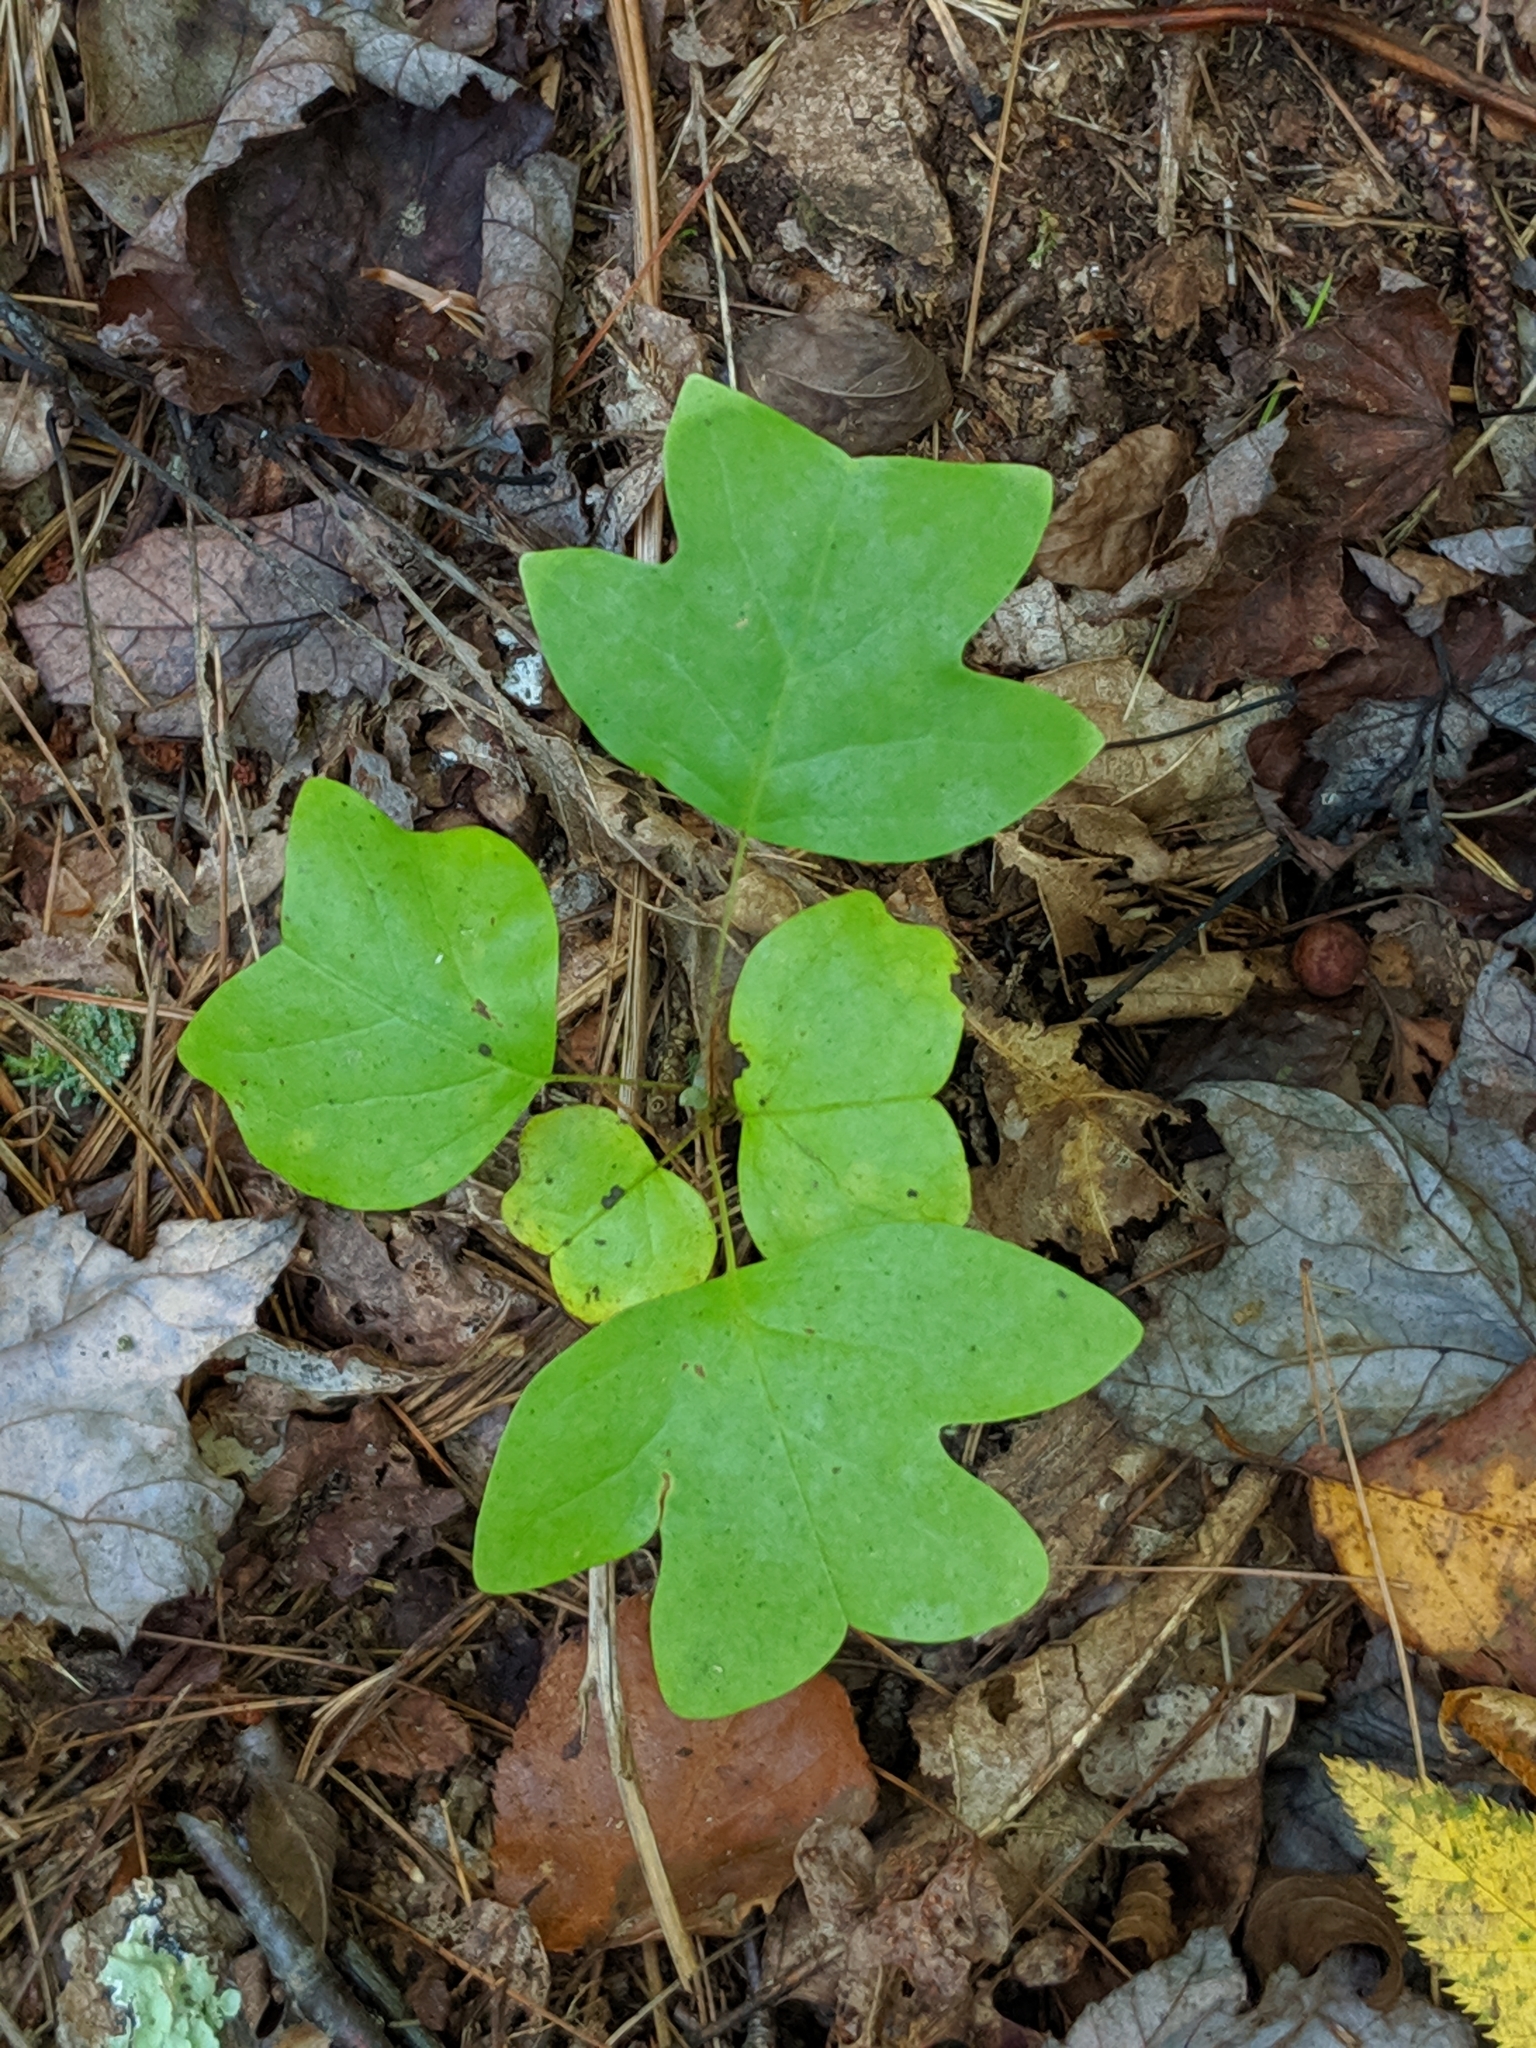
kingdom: Plantae
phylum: Tracheophyta
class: Magnoliopsida
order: Magnoliales
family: Magnoliaceae
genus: Liriodendron
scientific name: Liriodendron tulipifera
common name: Tulip tree
